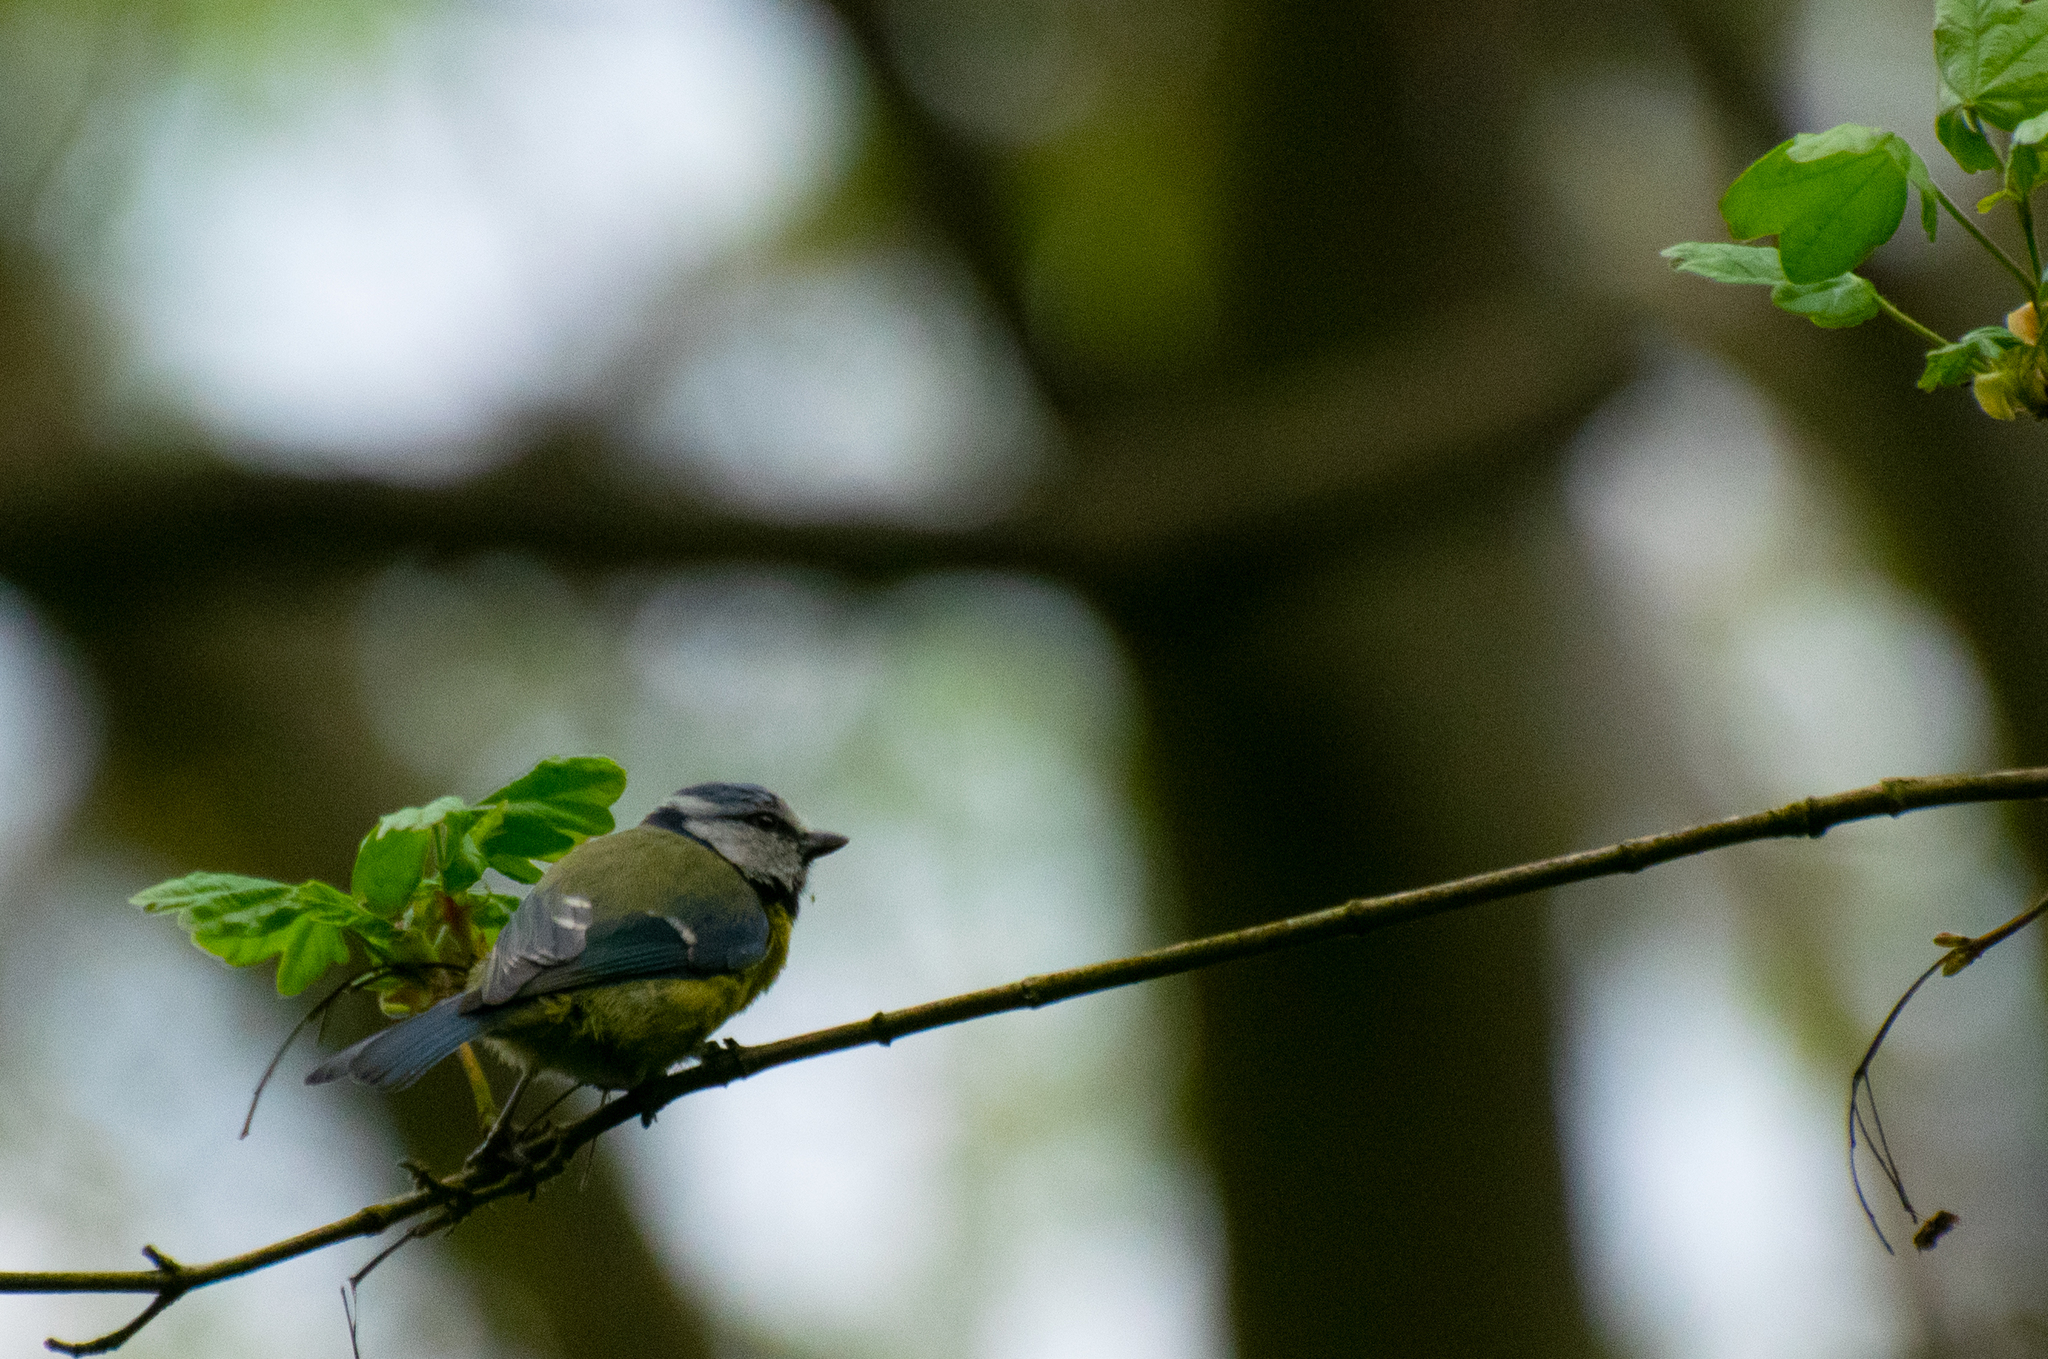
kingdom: Animalia
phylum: Chordata
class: Aves
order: Passeriformes
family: Paridae
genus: Cyanistes
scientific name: Cyanistes caeruleus
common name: Eurasian blue tit
